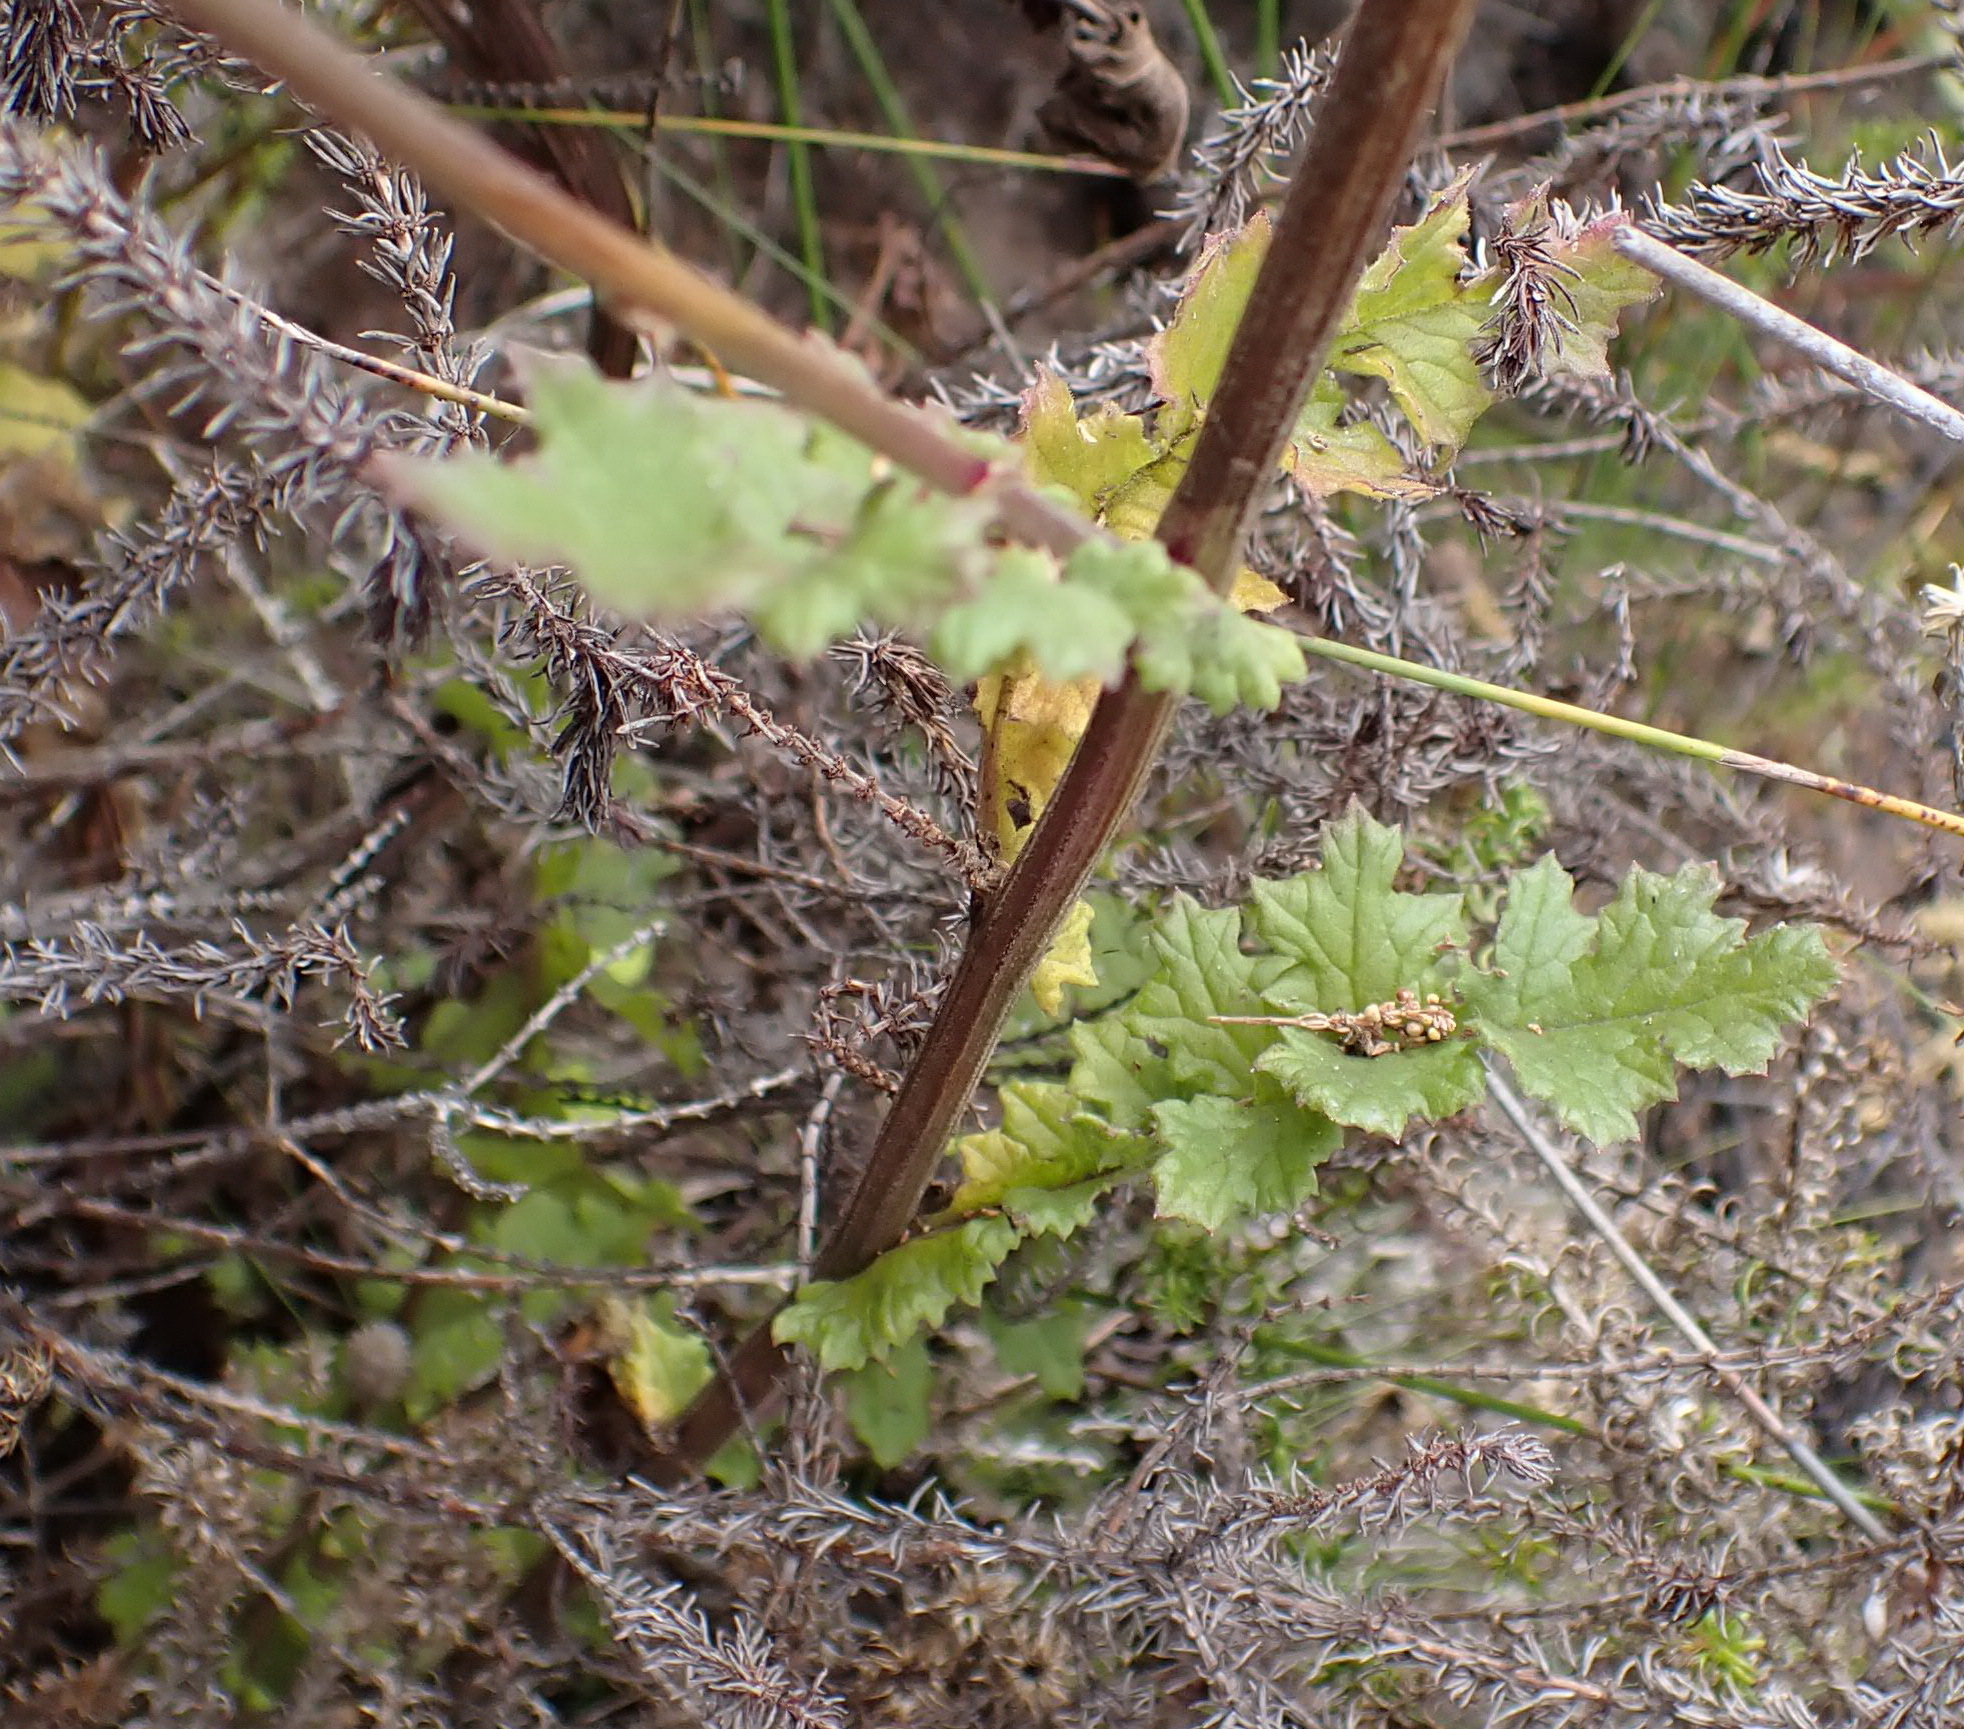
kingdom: Plantae
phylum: Tracheophyta
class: Magnoliopsida
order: Asterales
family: Asteraceae
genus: Senecio
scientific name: Senecio purpureus
